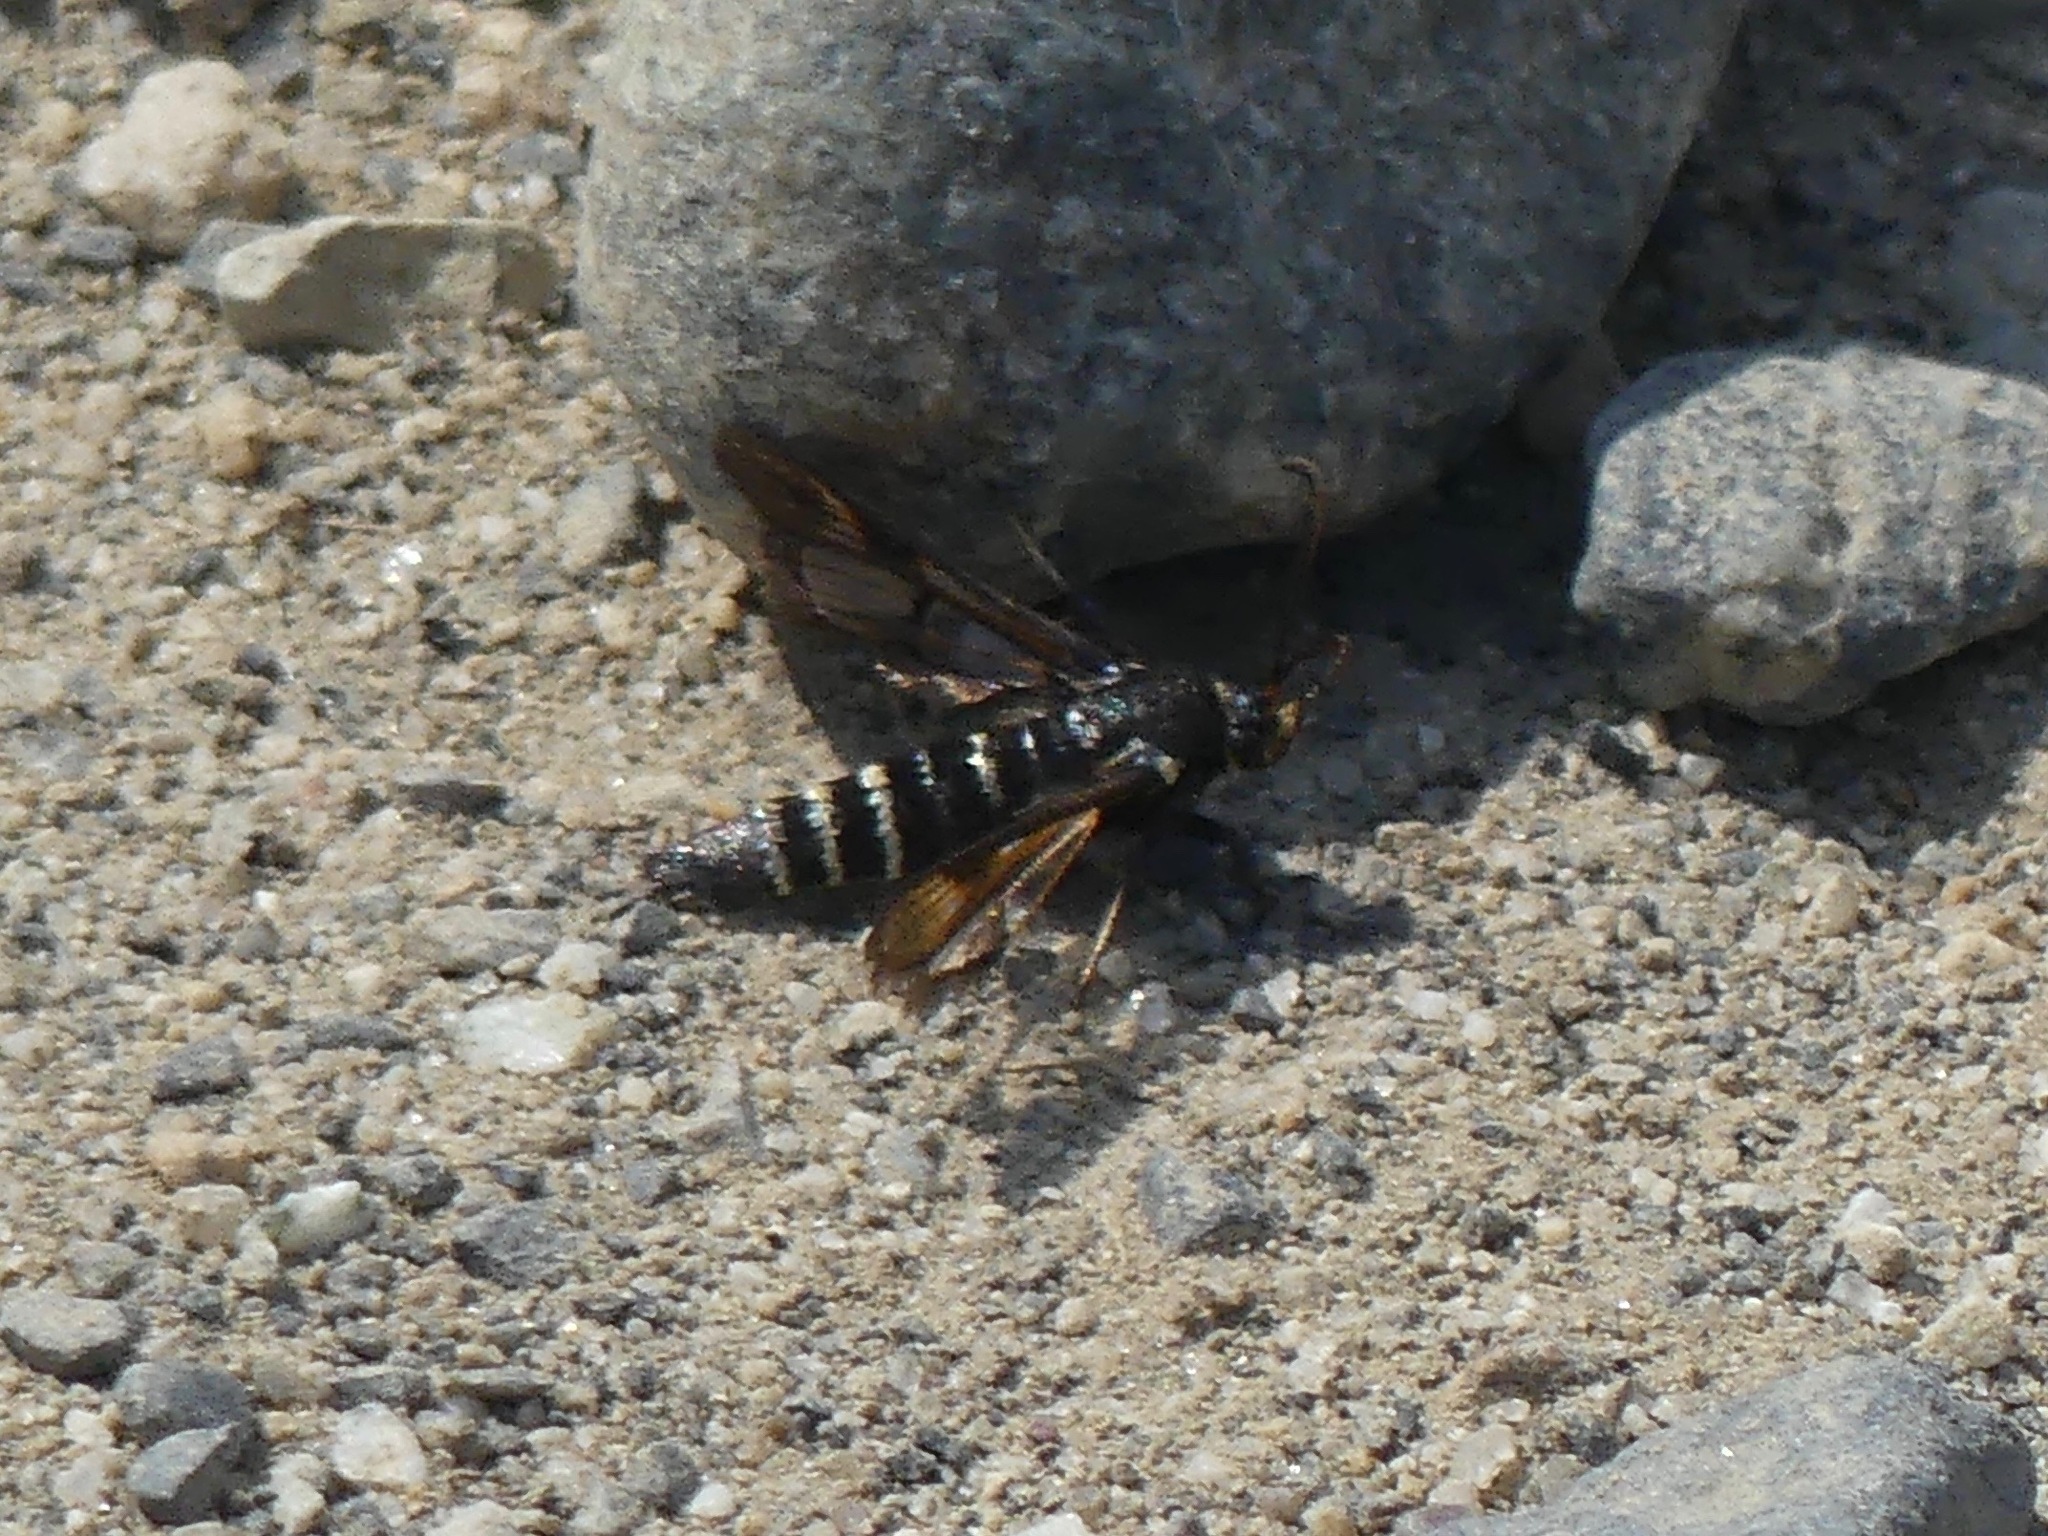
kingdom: Animalia
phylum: Arthropoda
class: Insecta
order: Lepidoptera
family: Sesiidae
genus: Albuna
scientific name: Albuna pyramidalis
